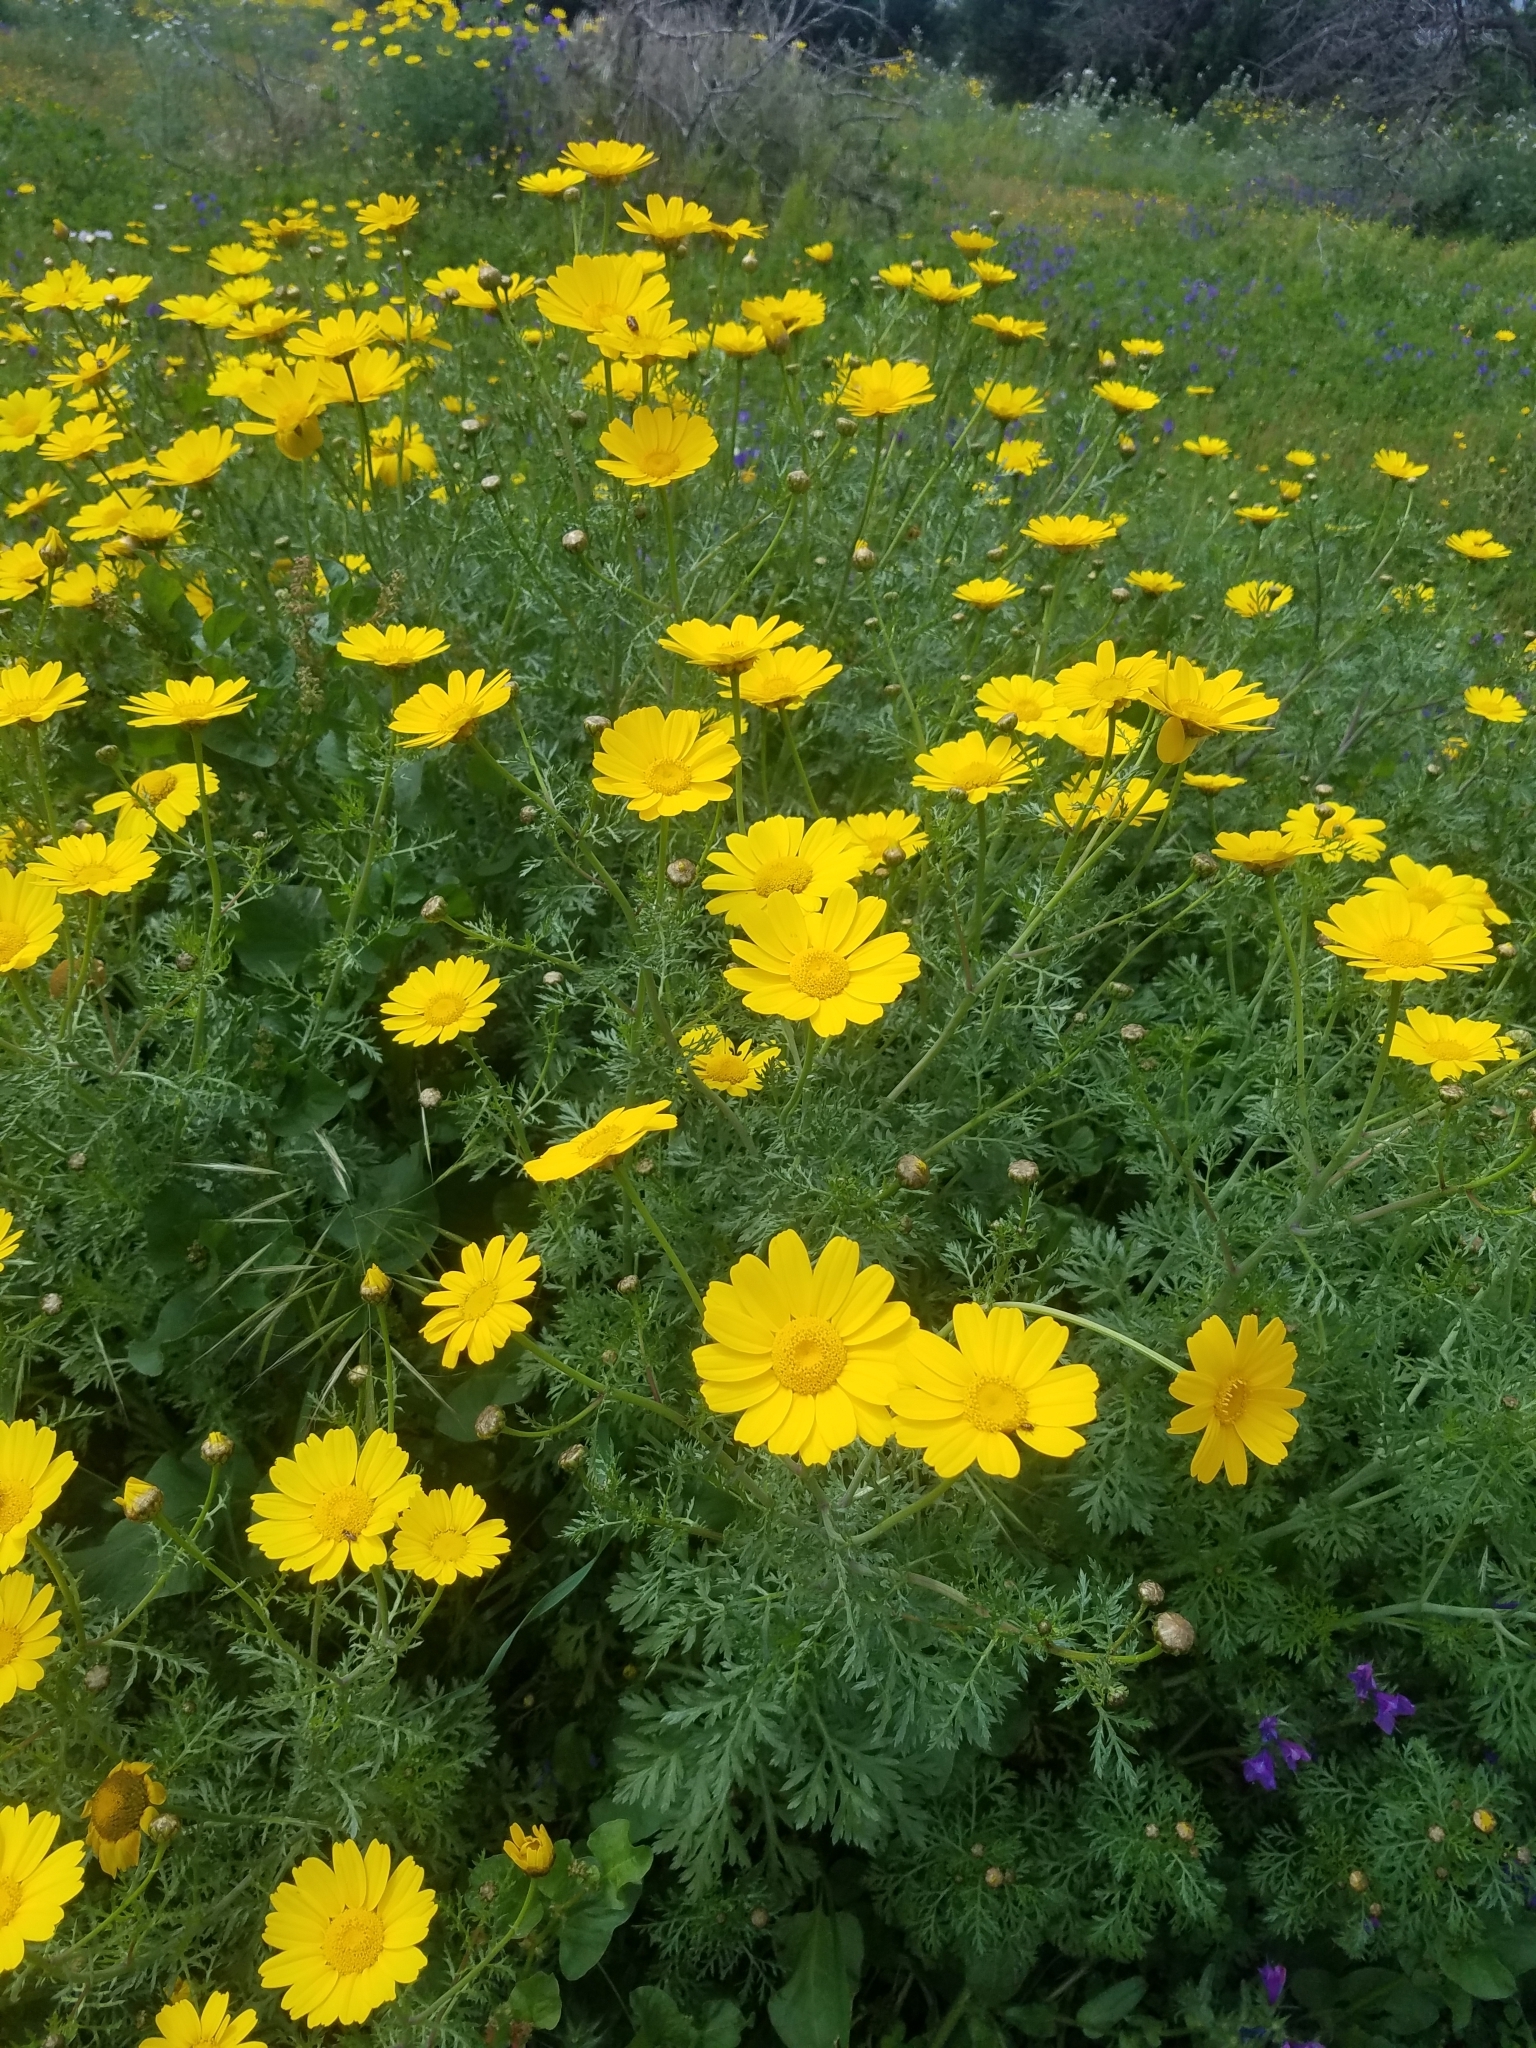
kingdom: Plantae
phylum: Tracheophyta
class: Magnoliopsida
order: Asterales
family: Asteraceae
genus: Glebionis
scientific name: Glebionis coronaria
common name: Crowndaisy
